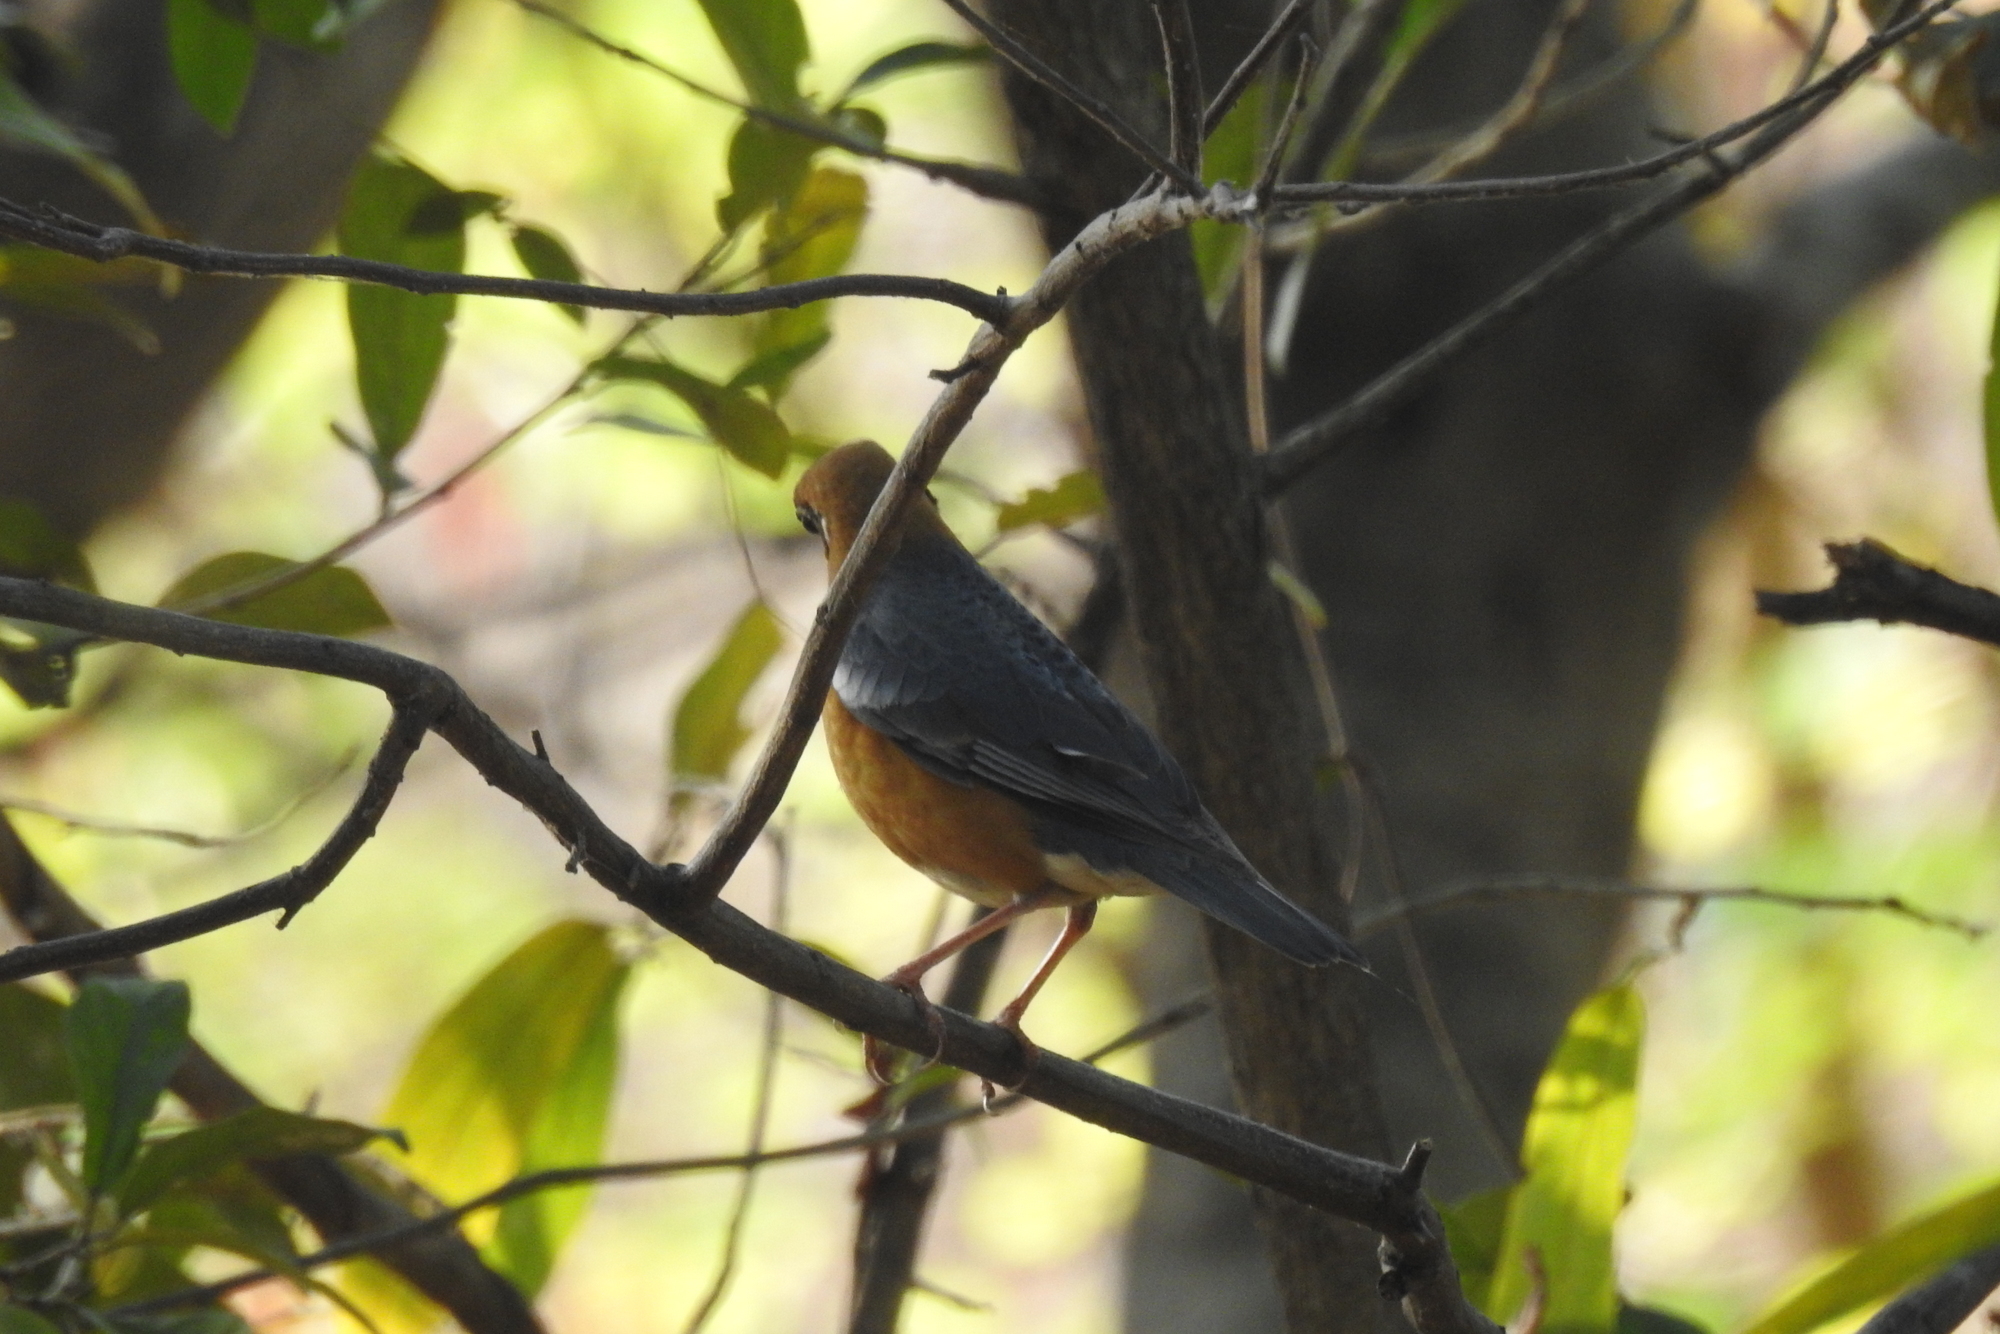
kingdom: Animalia
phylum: Chordata
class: Aves
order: Passeriformes
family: Turdidae
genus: Geokichla
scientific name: Geokichla citrina
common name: Orange-headed thrush
